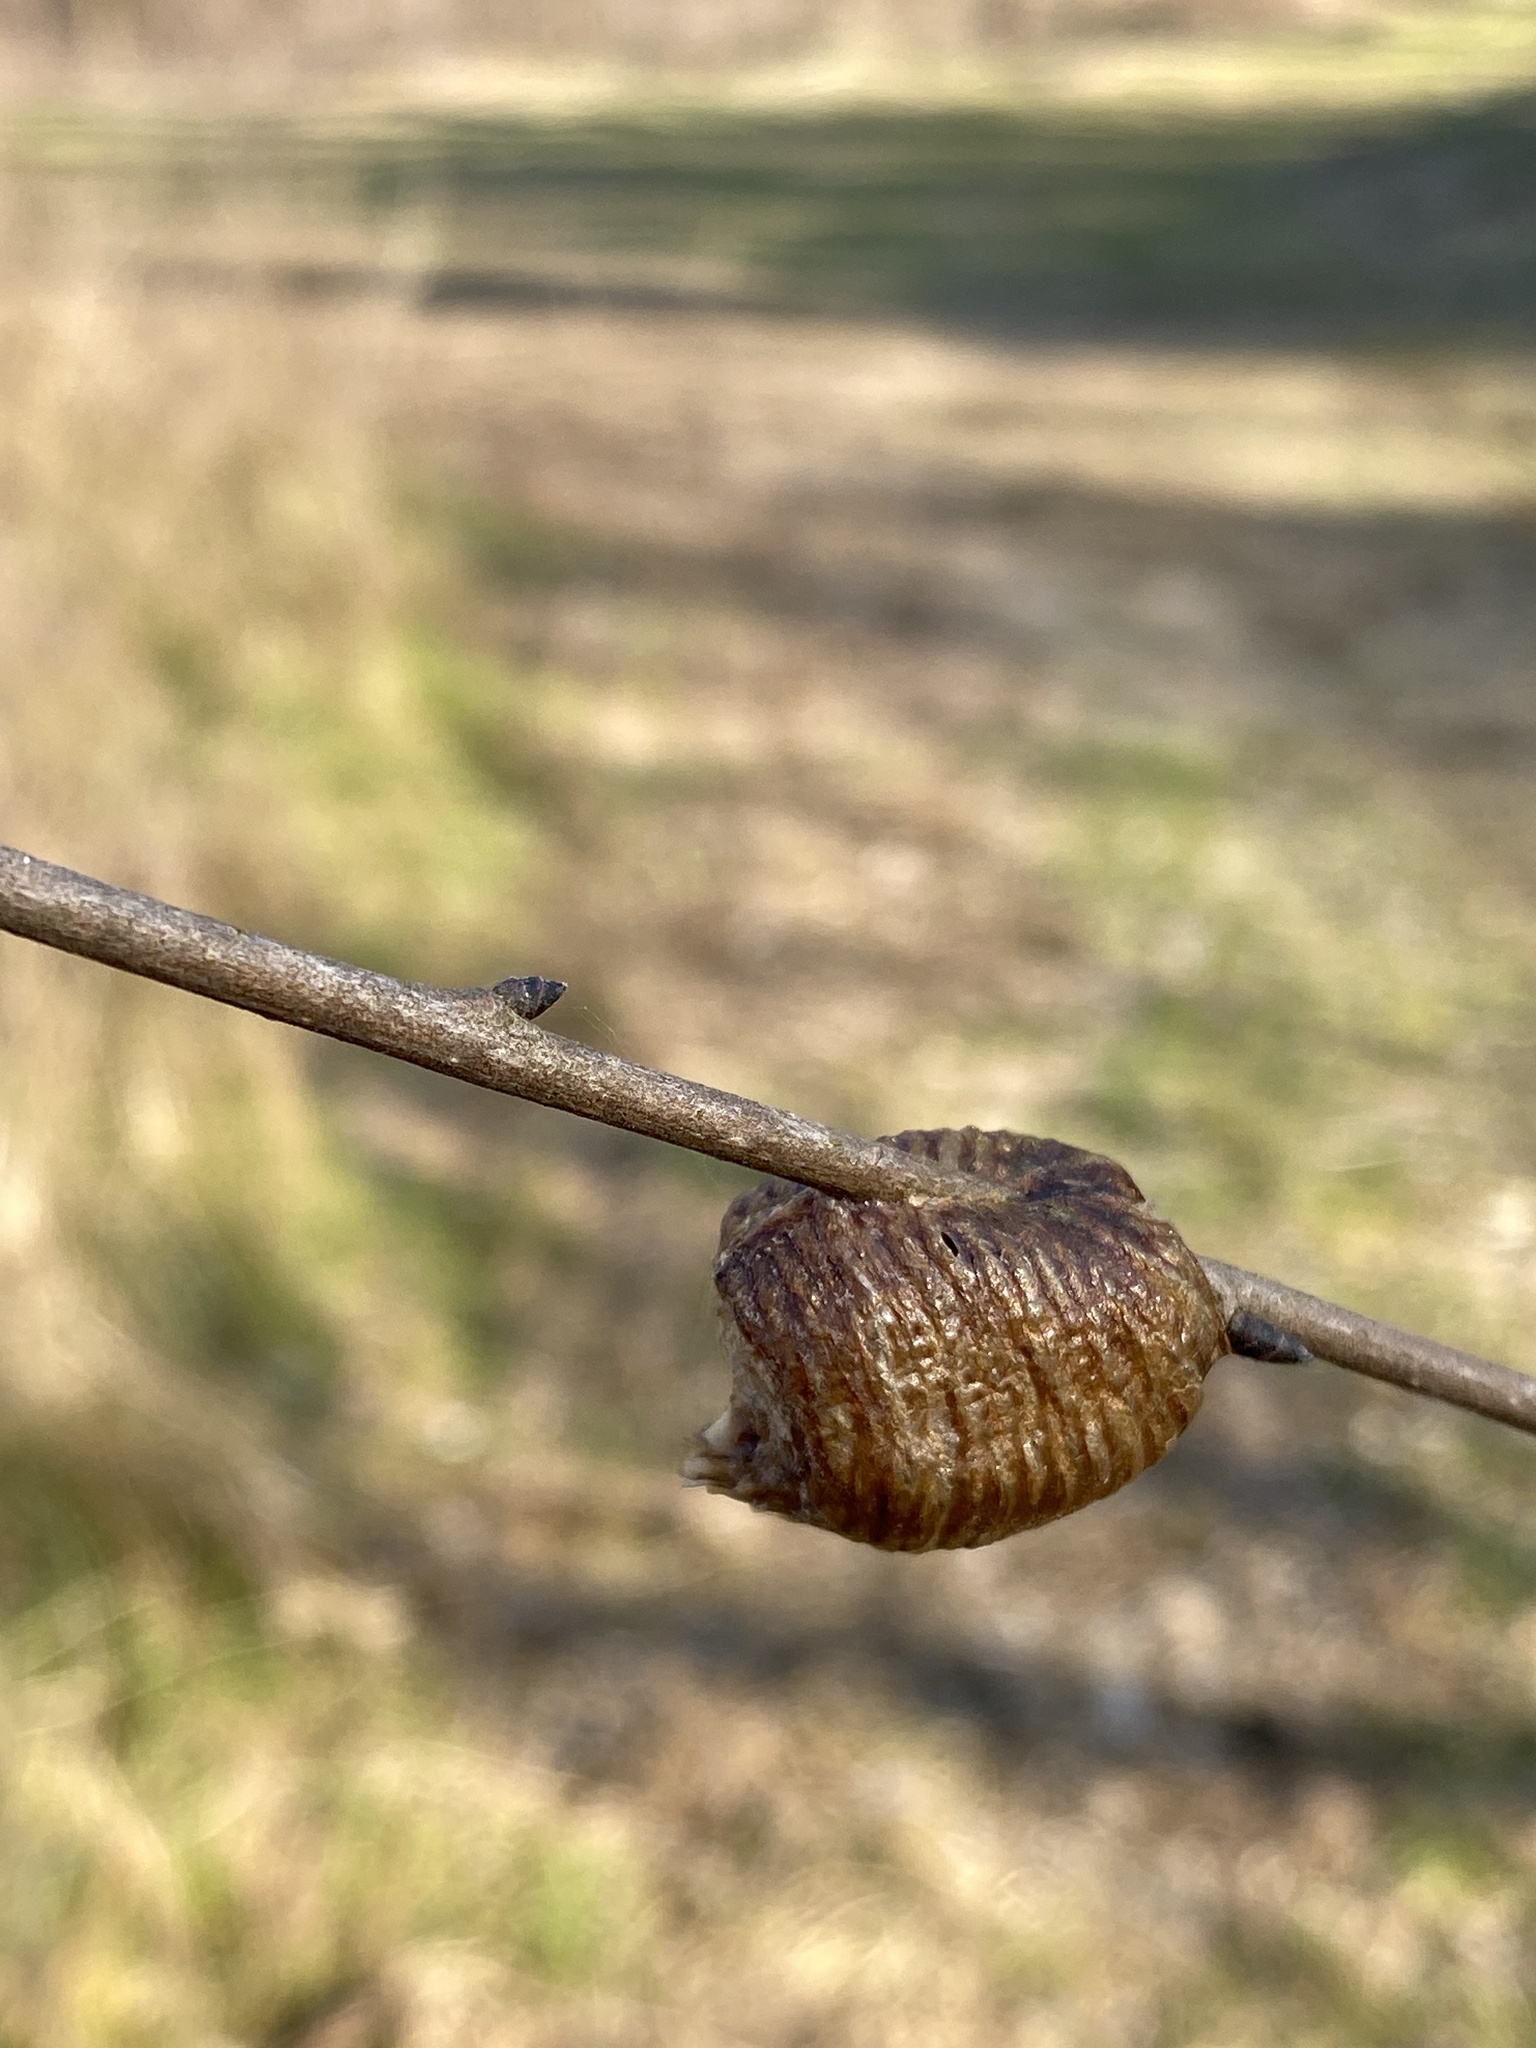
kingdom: Animalia
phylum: Arthropoda
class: Insecta
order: Mantodea
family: Mantidae
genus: Hierodula
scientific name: Hierodula transcaucasica
